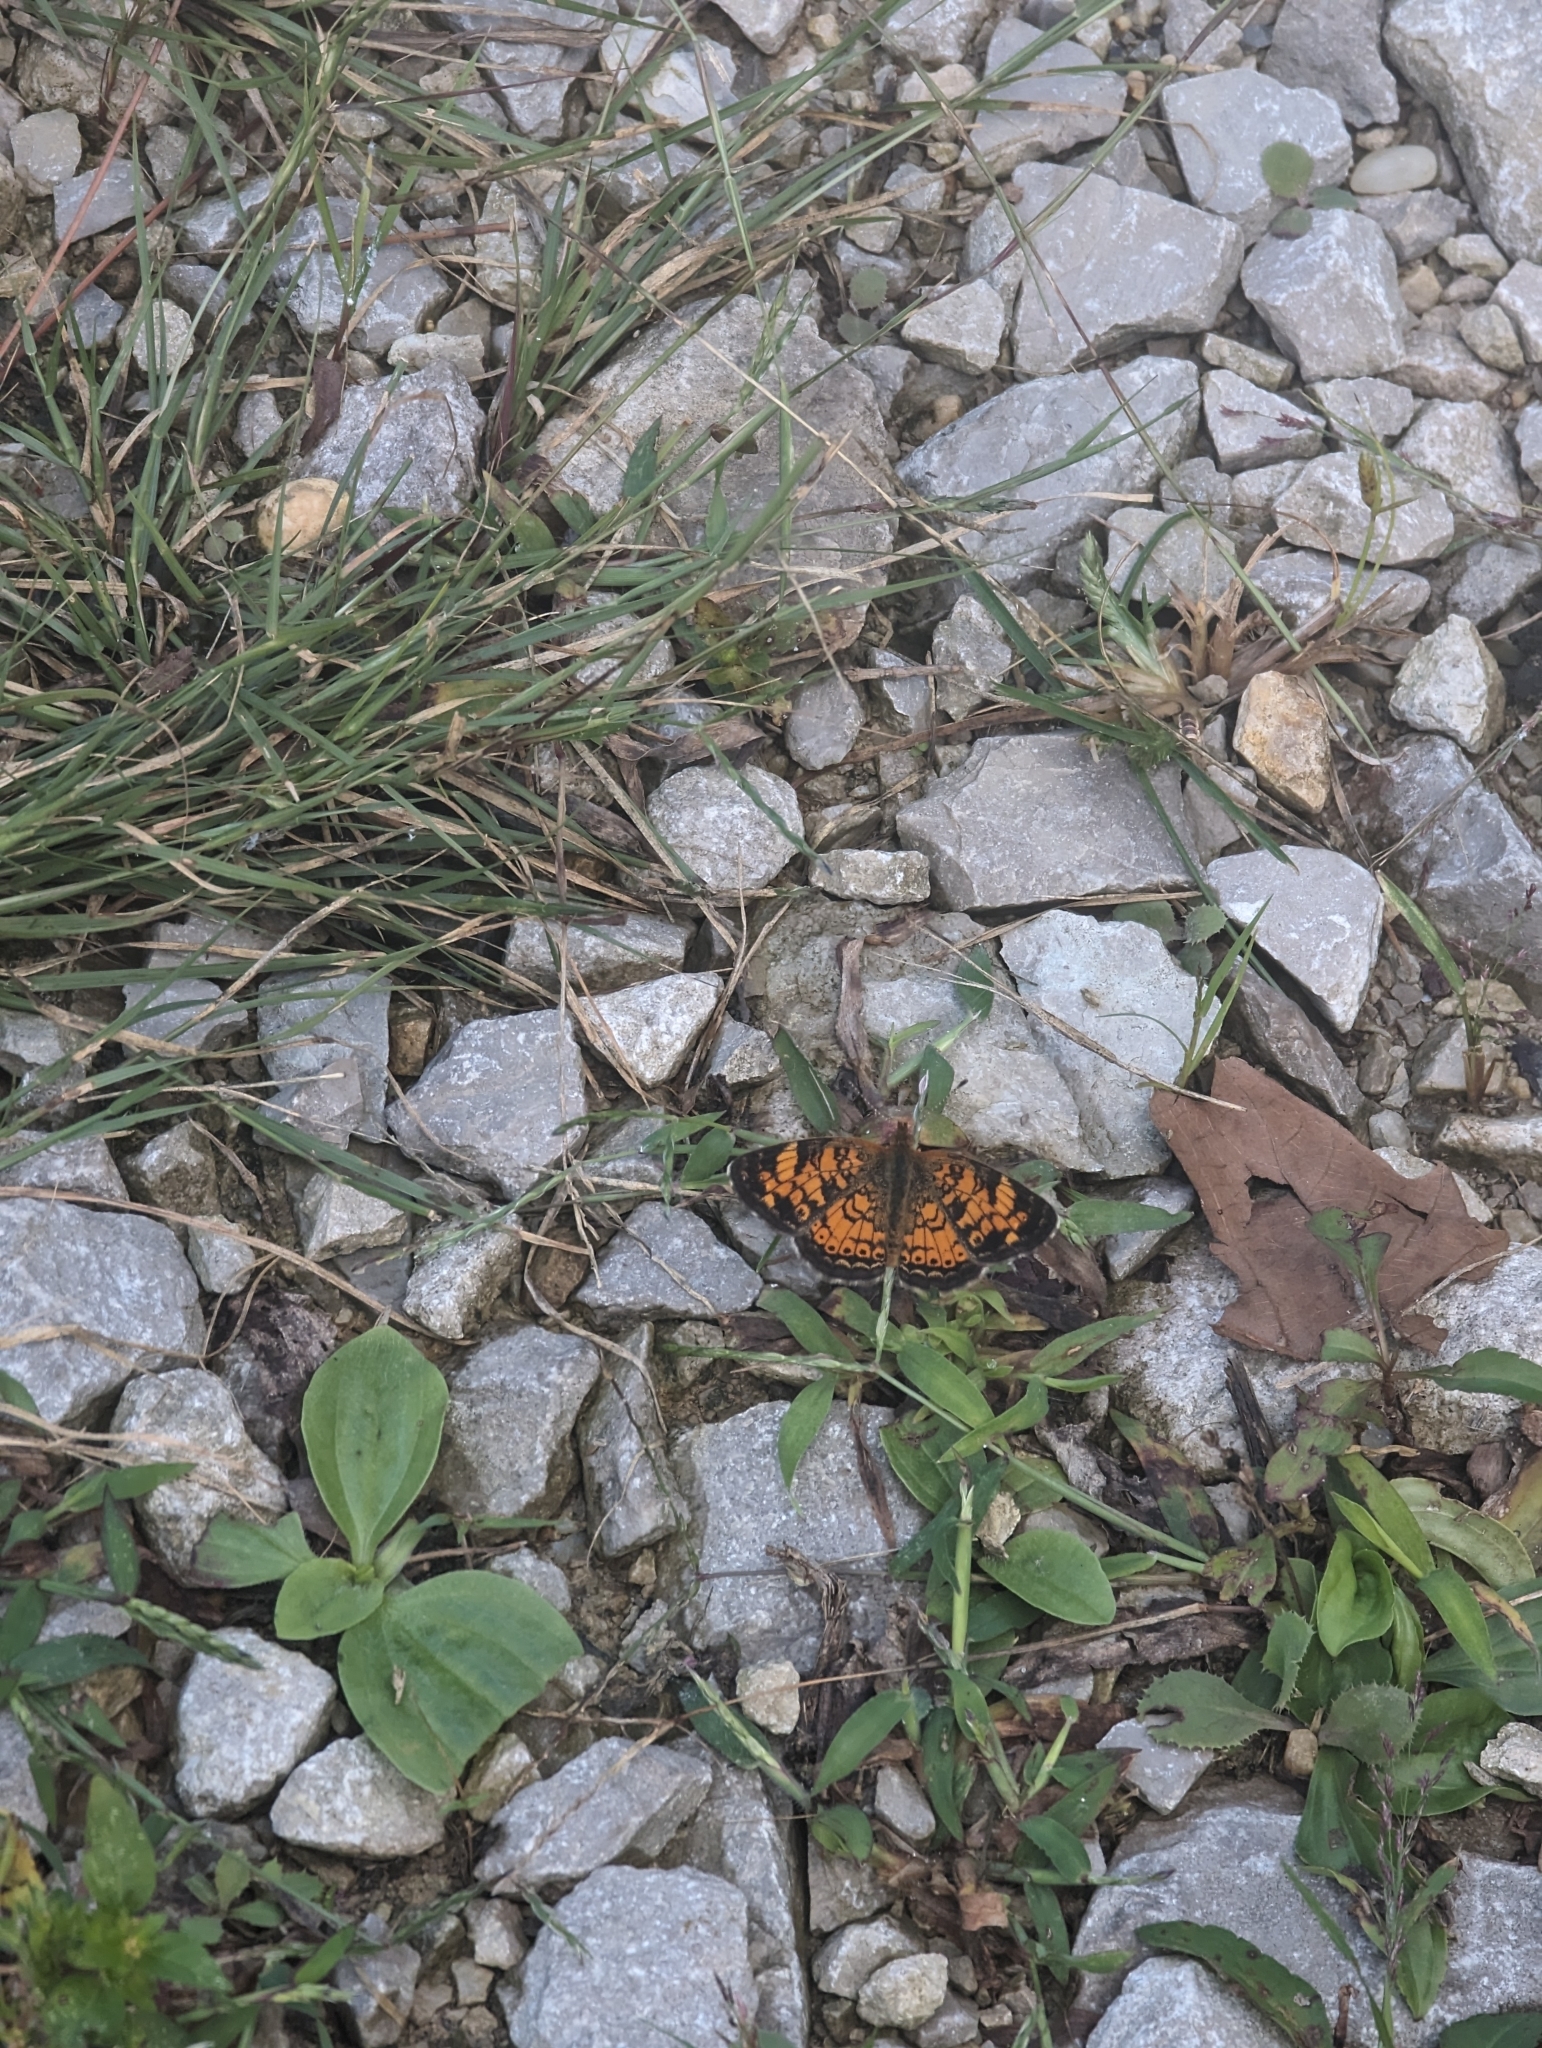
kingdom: Animalia
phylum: Arthropoda
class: Insecta
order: Lepidoptera
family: Nymphalidae
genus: Phyciodes
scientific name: Phyciodes tharos
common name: Pearl crescent
